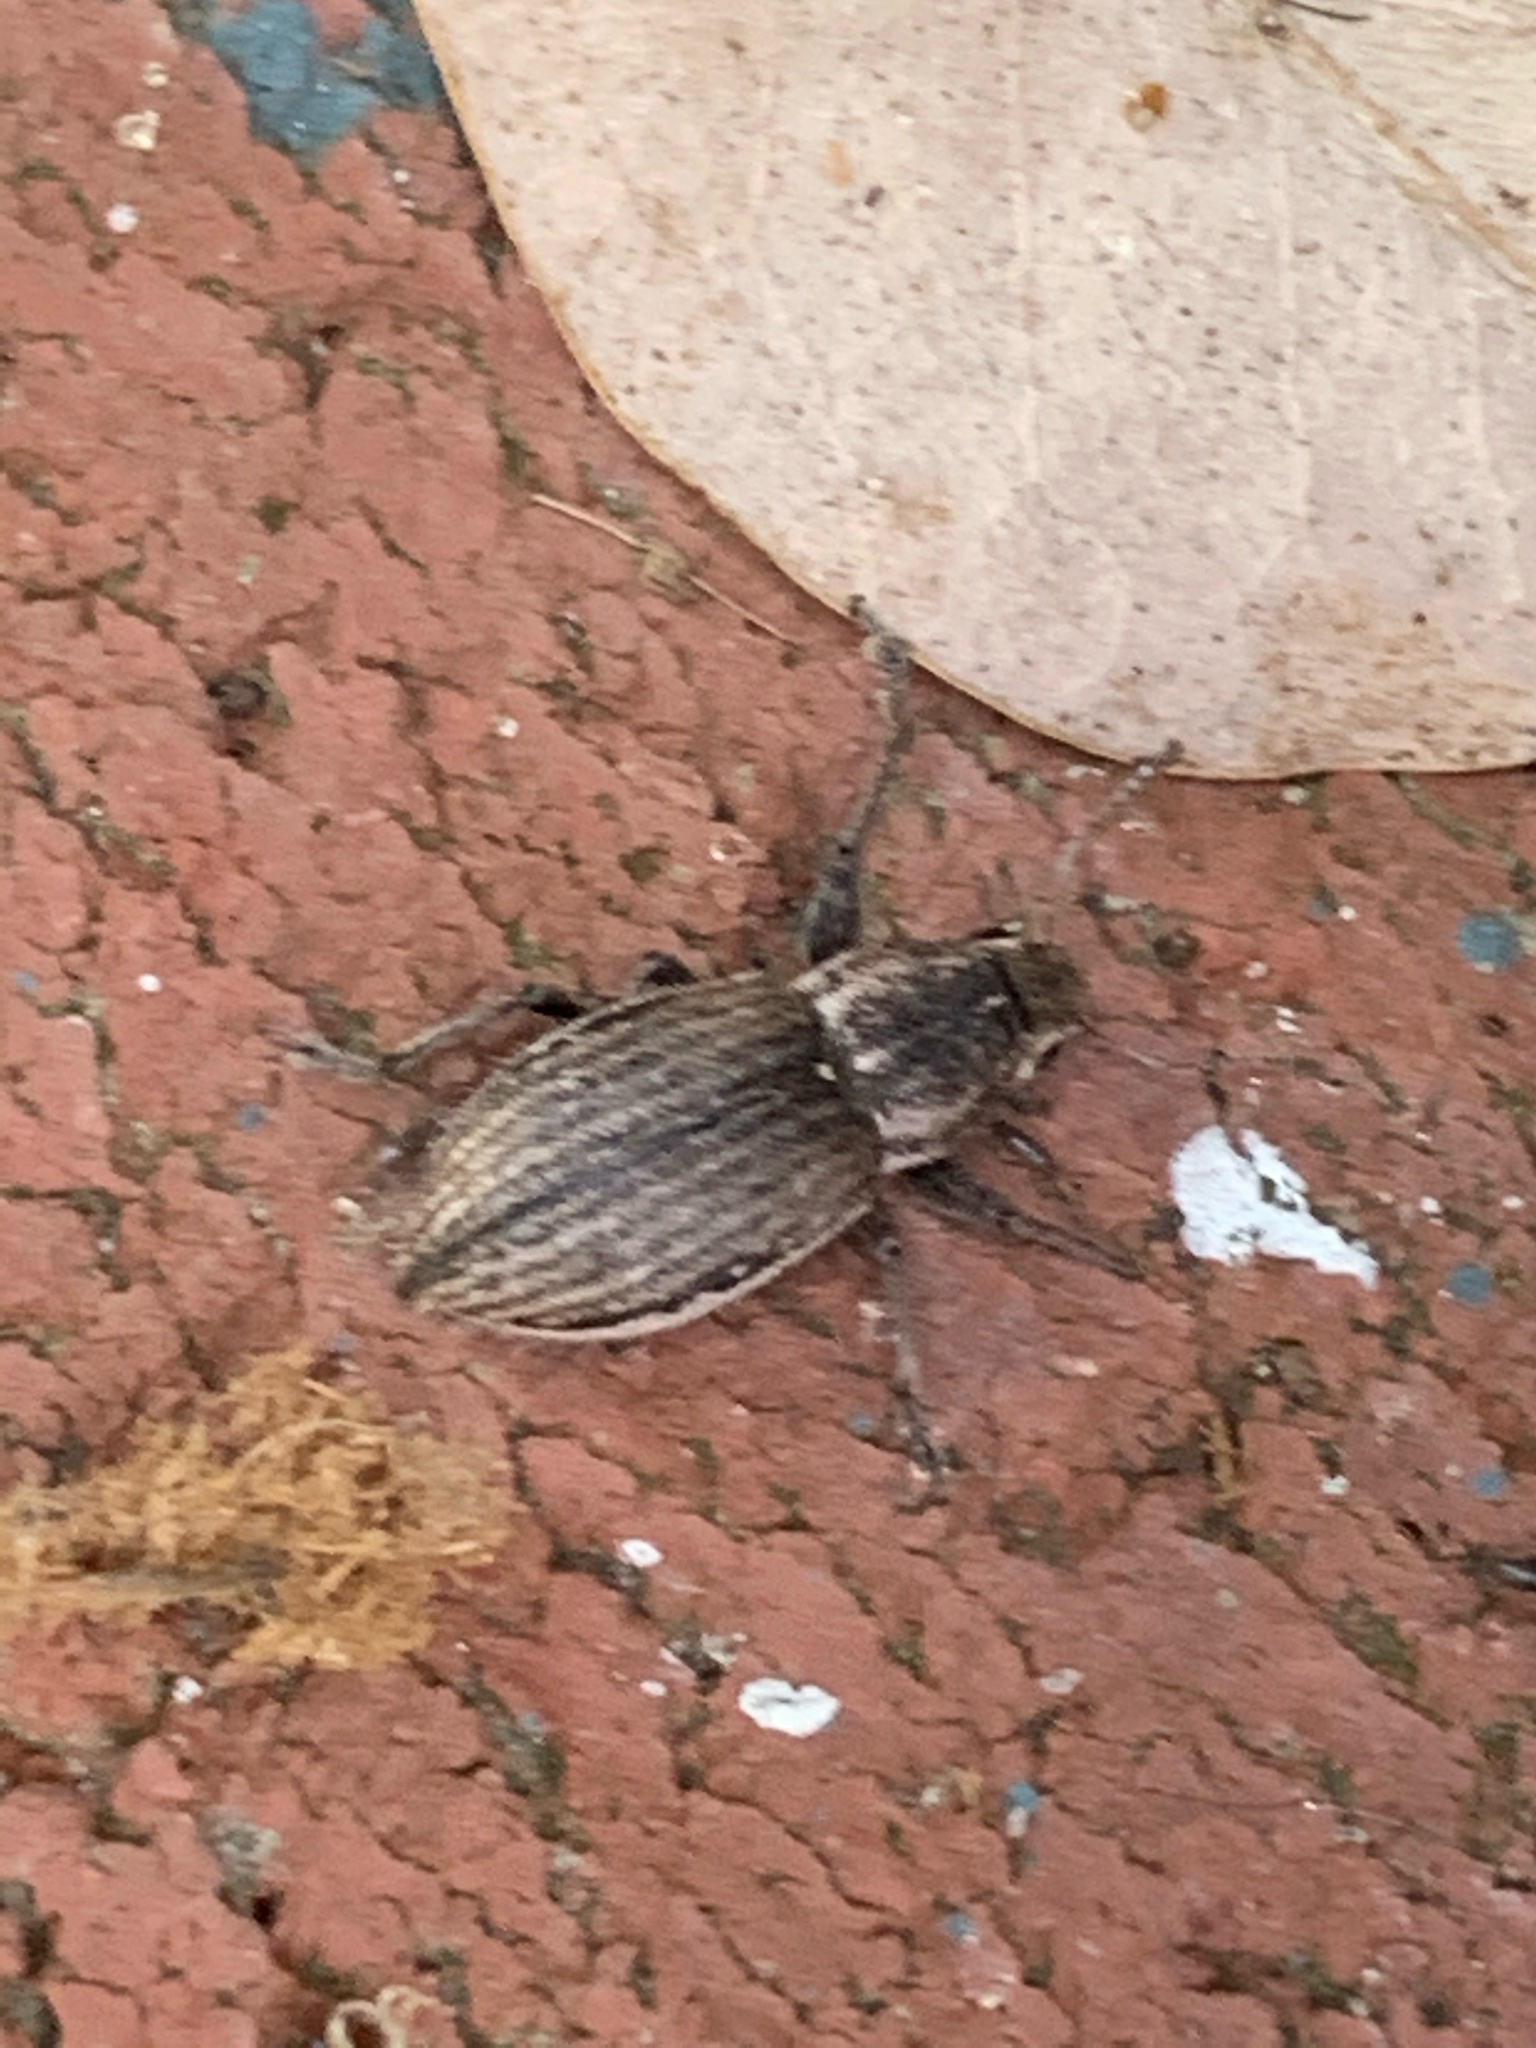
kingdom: Animalia
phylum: Arthropoda
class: Insecta
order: Coleoptera
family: Curculionidae
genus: Naupactus
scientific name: Naupactus leucoloma
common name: Whitefringed beetle
